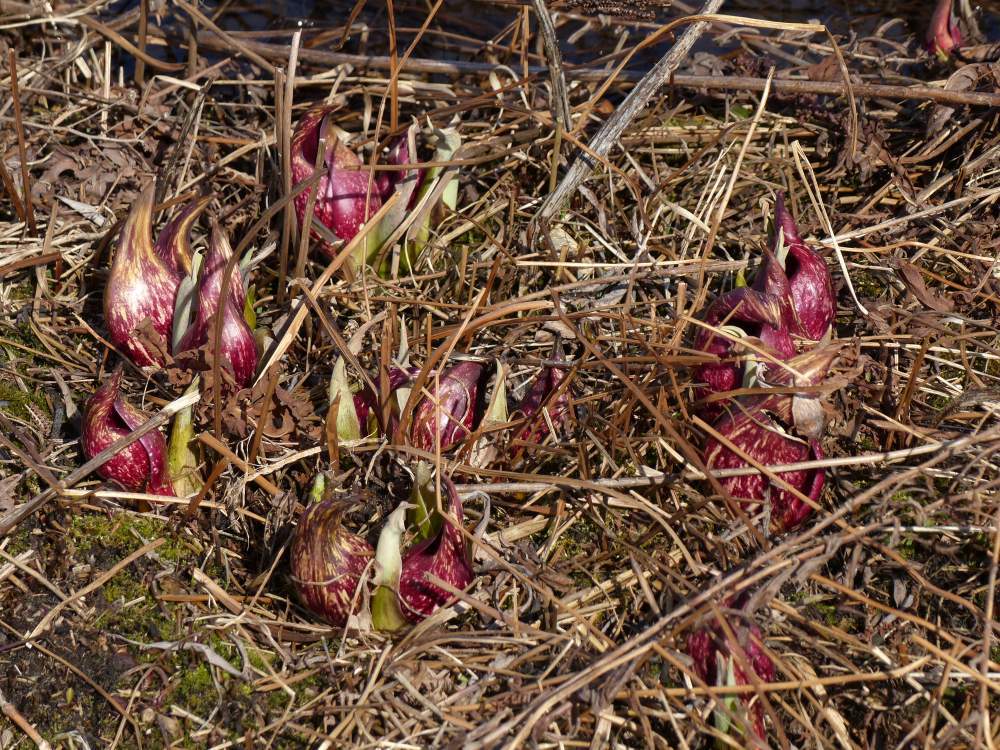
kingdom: Plantae
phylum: Tracheophyta
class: Liliopsida
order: Alismatales
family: Araceae
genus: Symplocarpus
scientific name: Symplocarpus foetidus
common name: Eastern skunk cabbage
